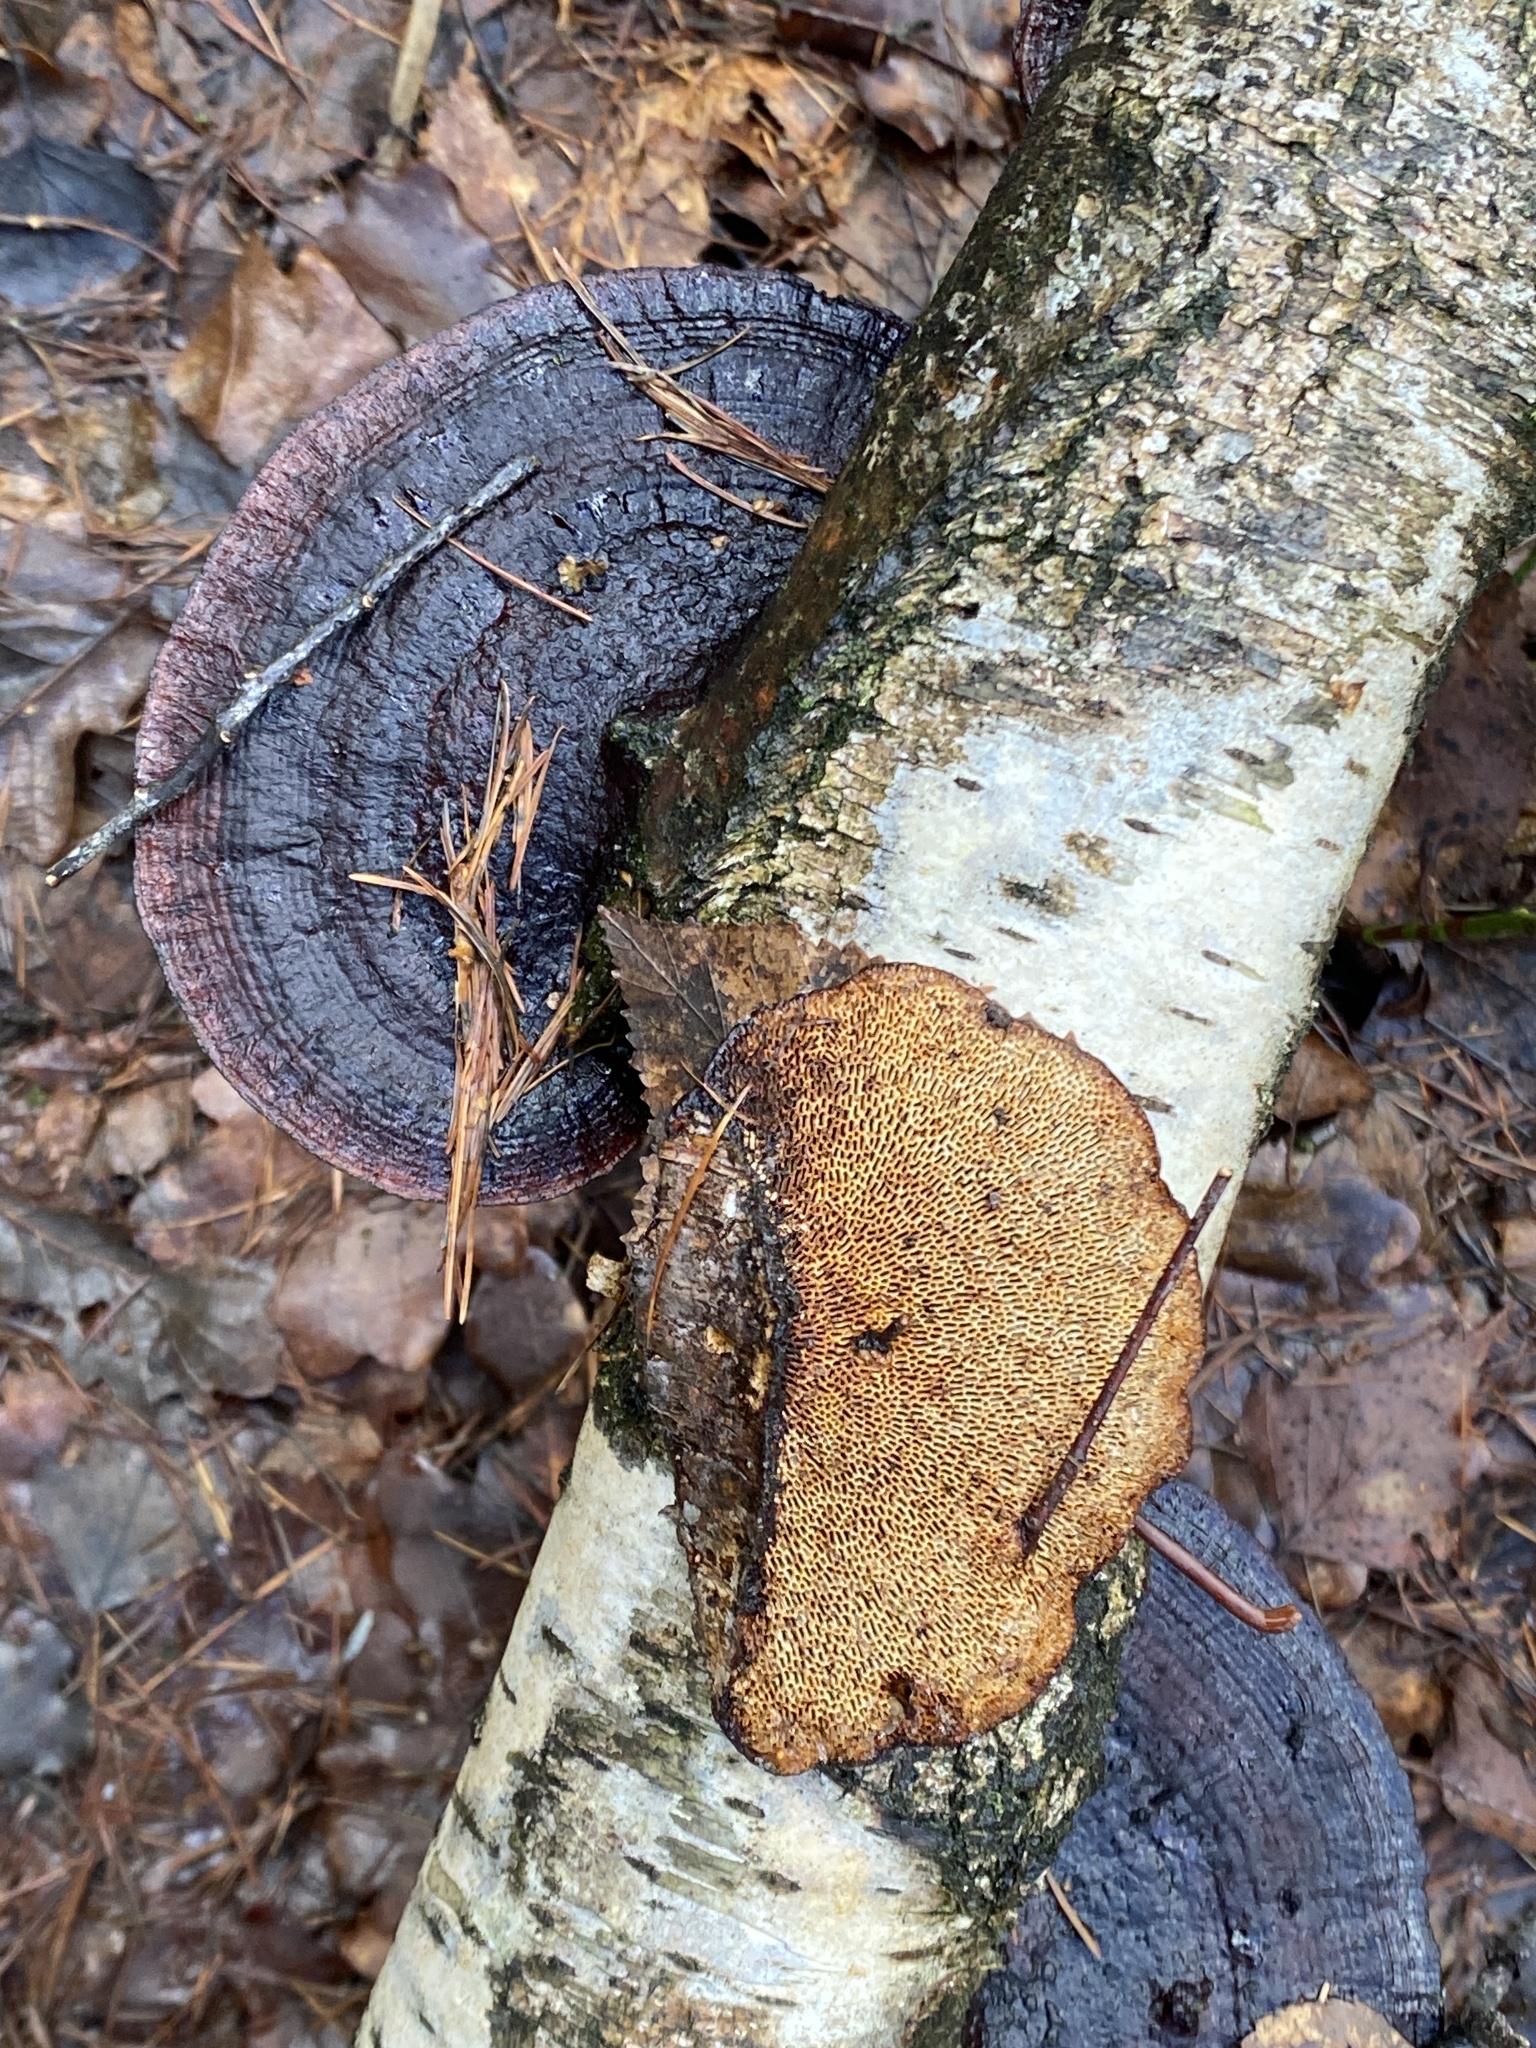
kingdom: Fungi
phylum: Basidiomycota
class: Agaricomycetes
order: Polyporales
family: Polyporaceae
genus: Daedaleopsis
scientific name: Daedaleopsis confragosa
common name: Blushing bracket
